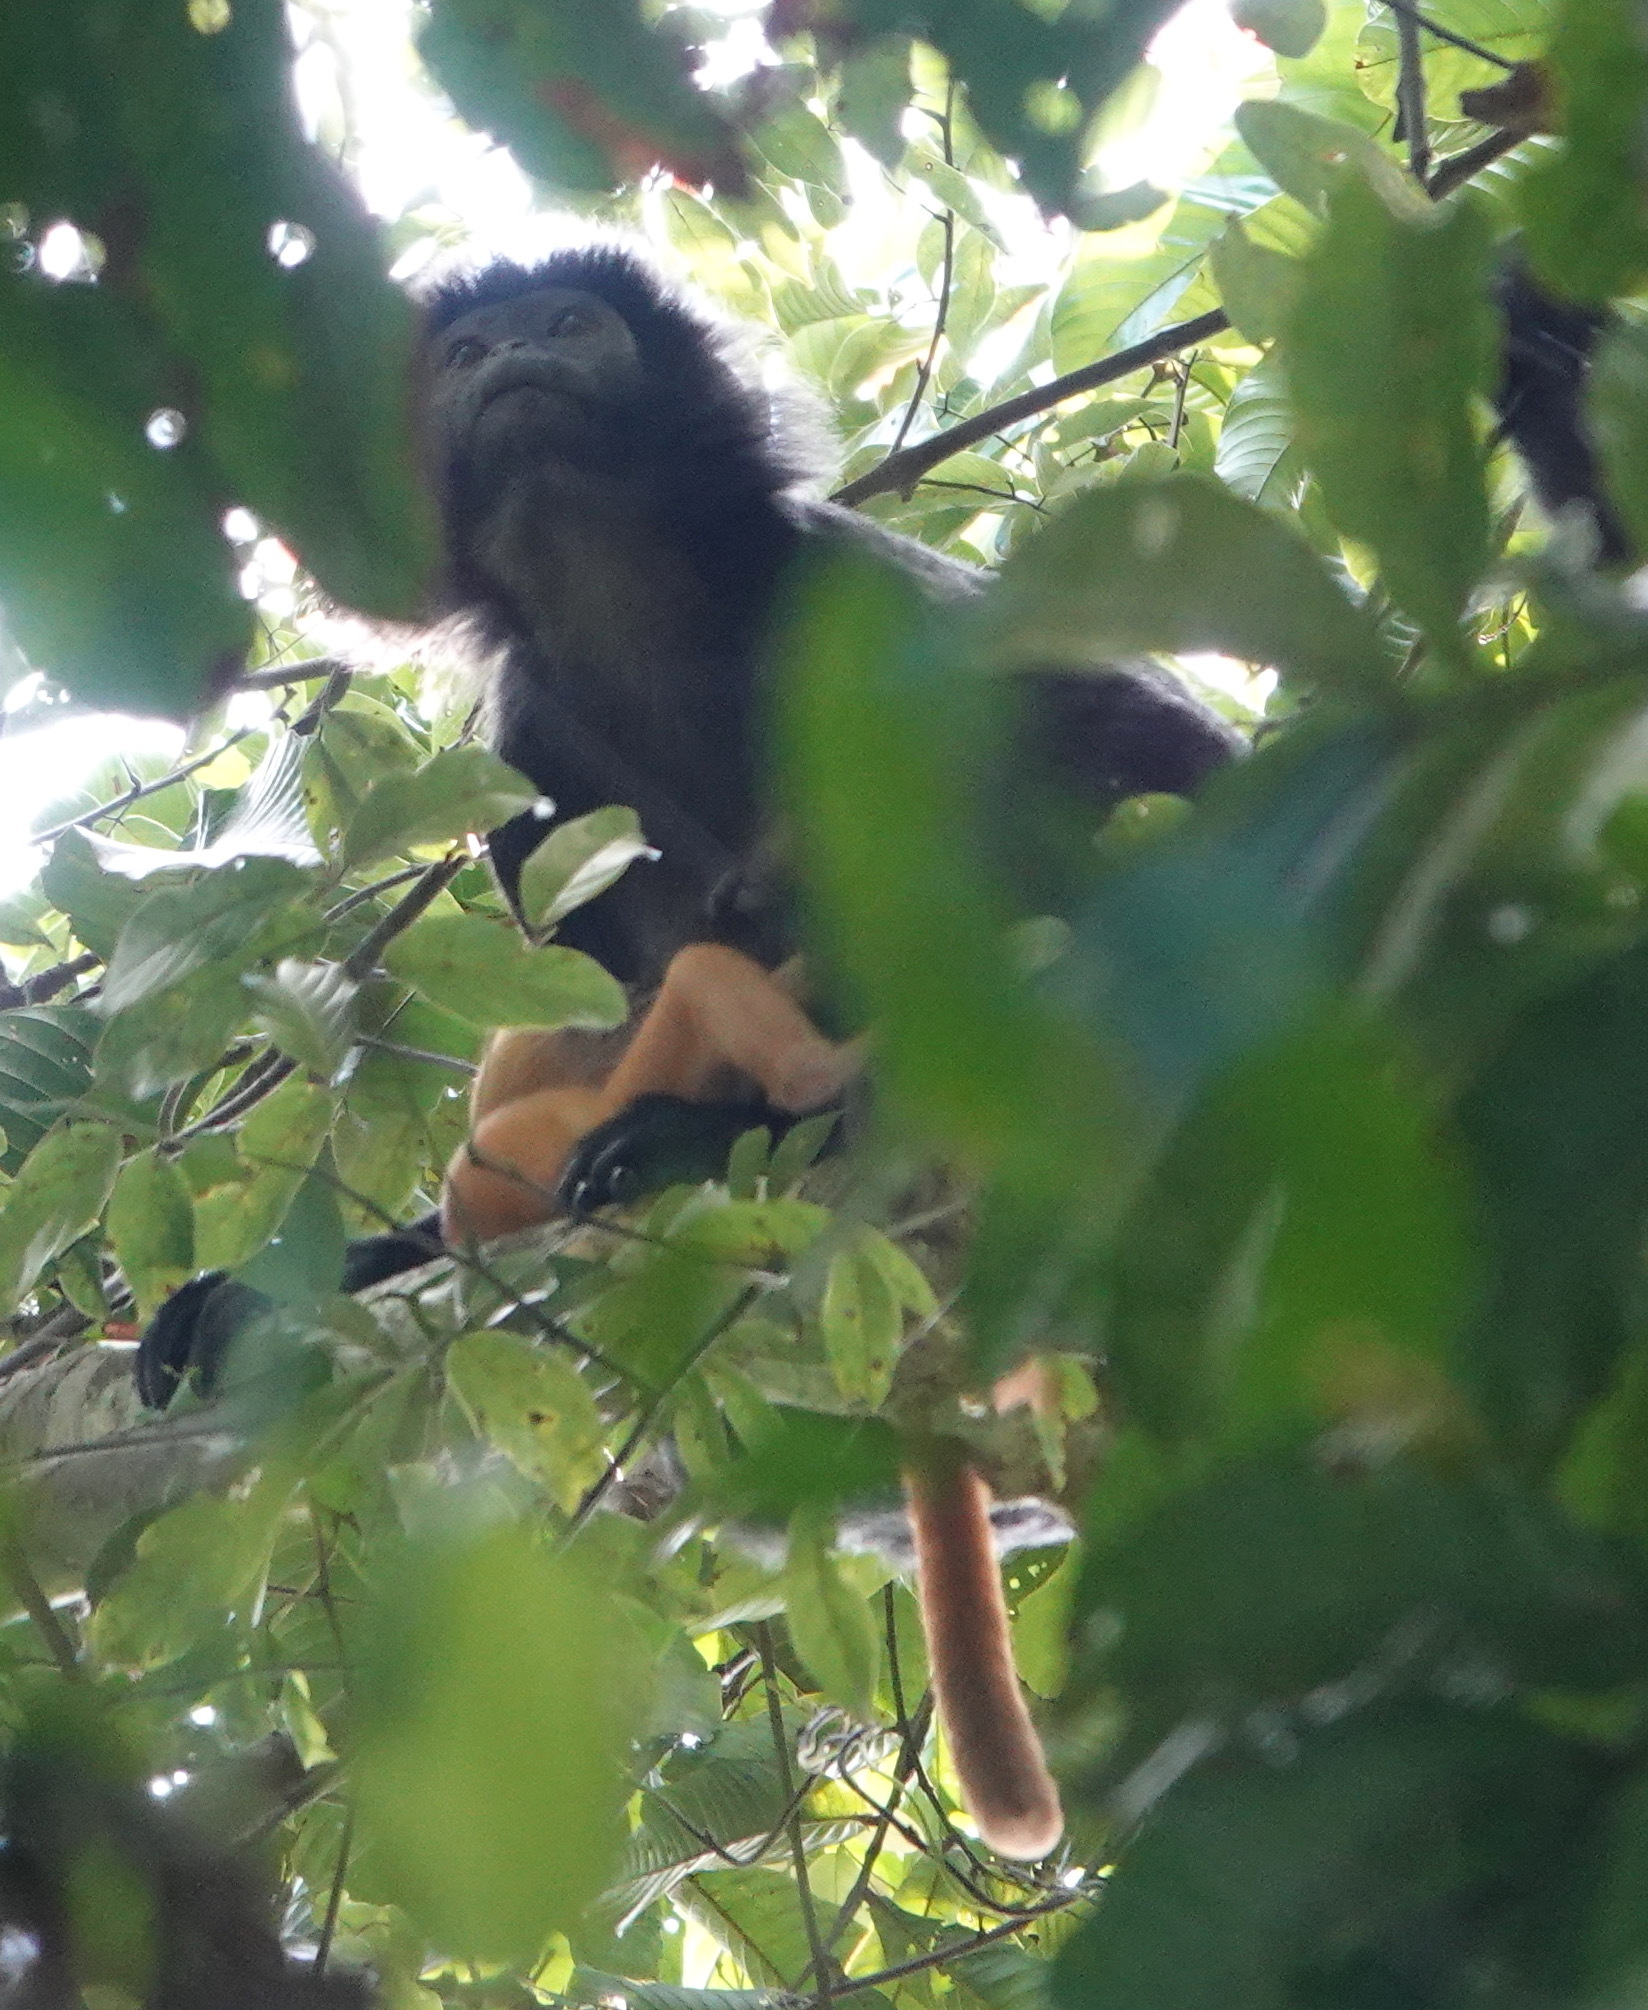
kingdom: Animalia
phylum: Chordata
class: Mammalia
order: Primates
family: Cercopithecidae
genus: Trachypithecus
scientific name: Trachypithecus auratus
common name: Javan lutung
